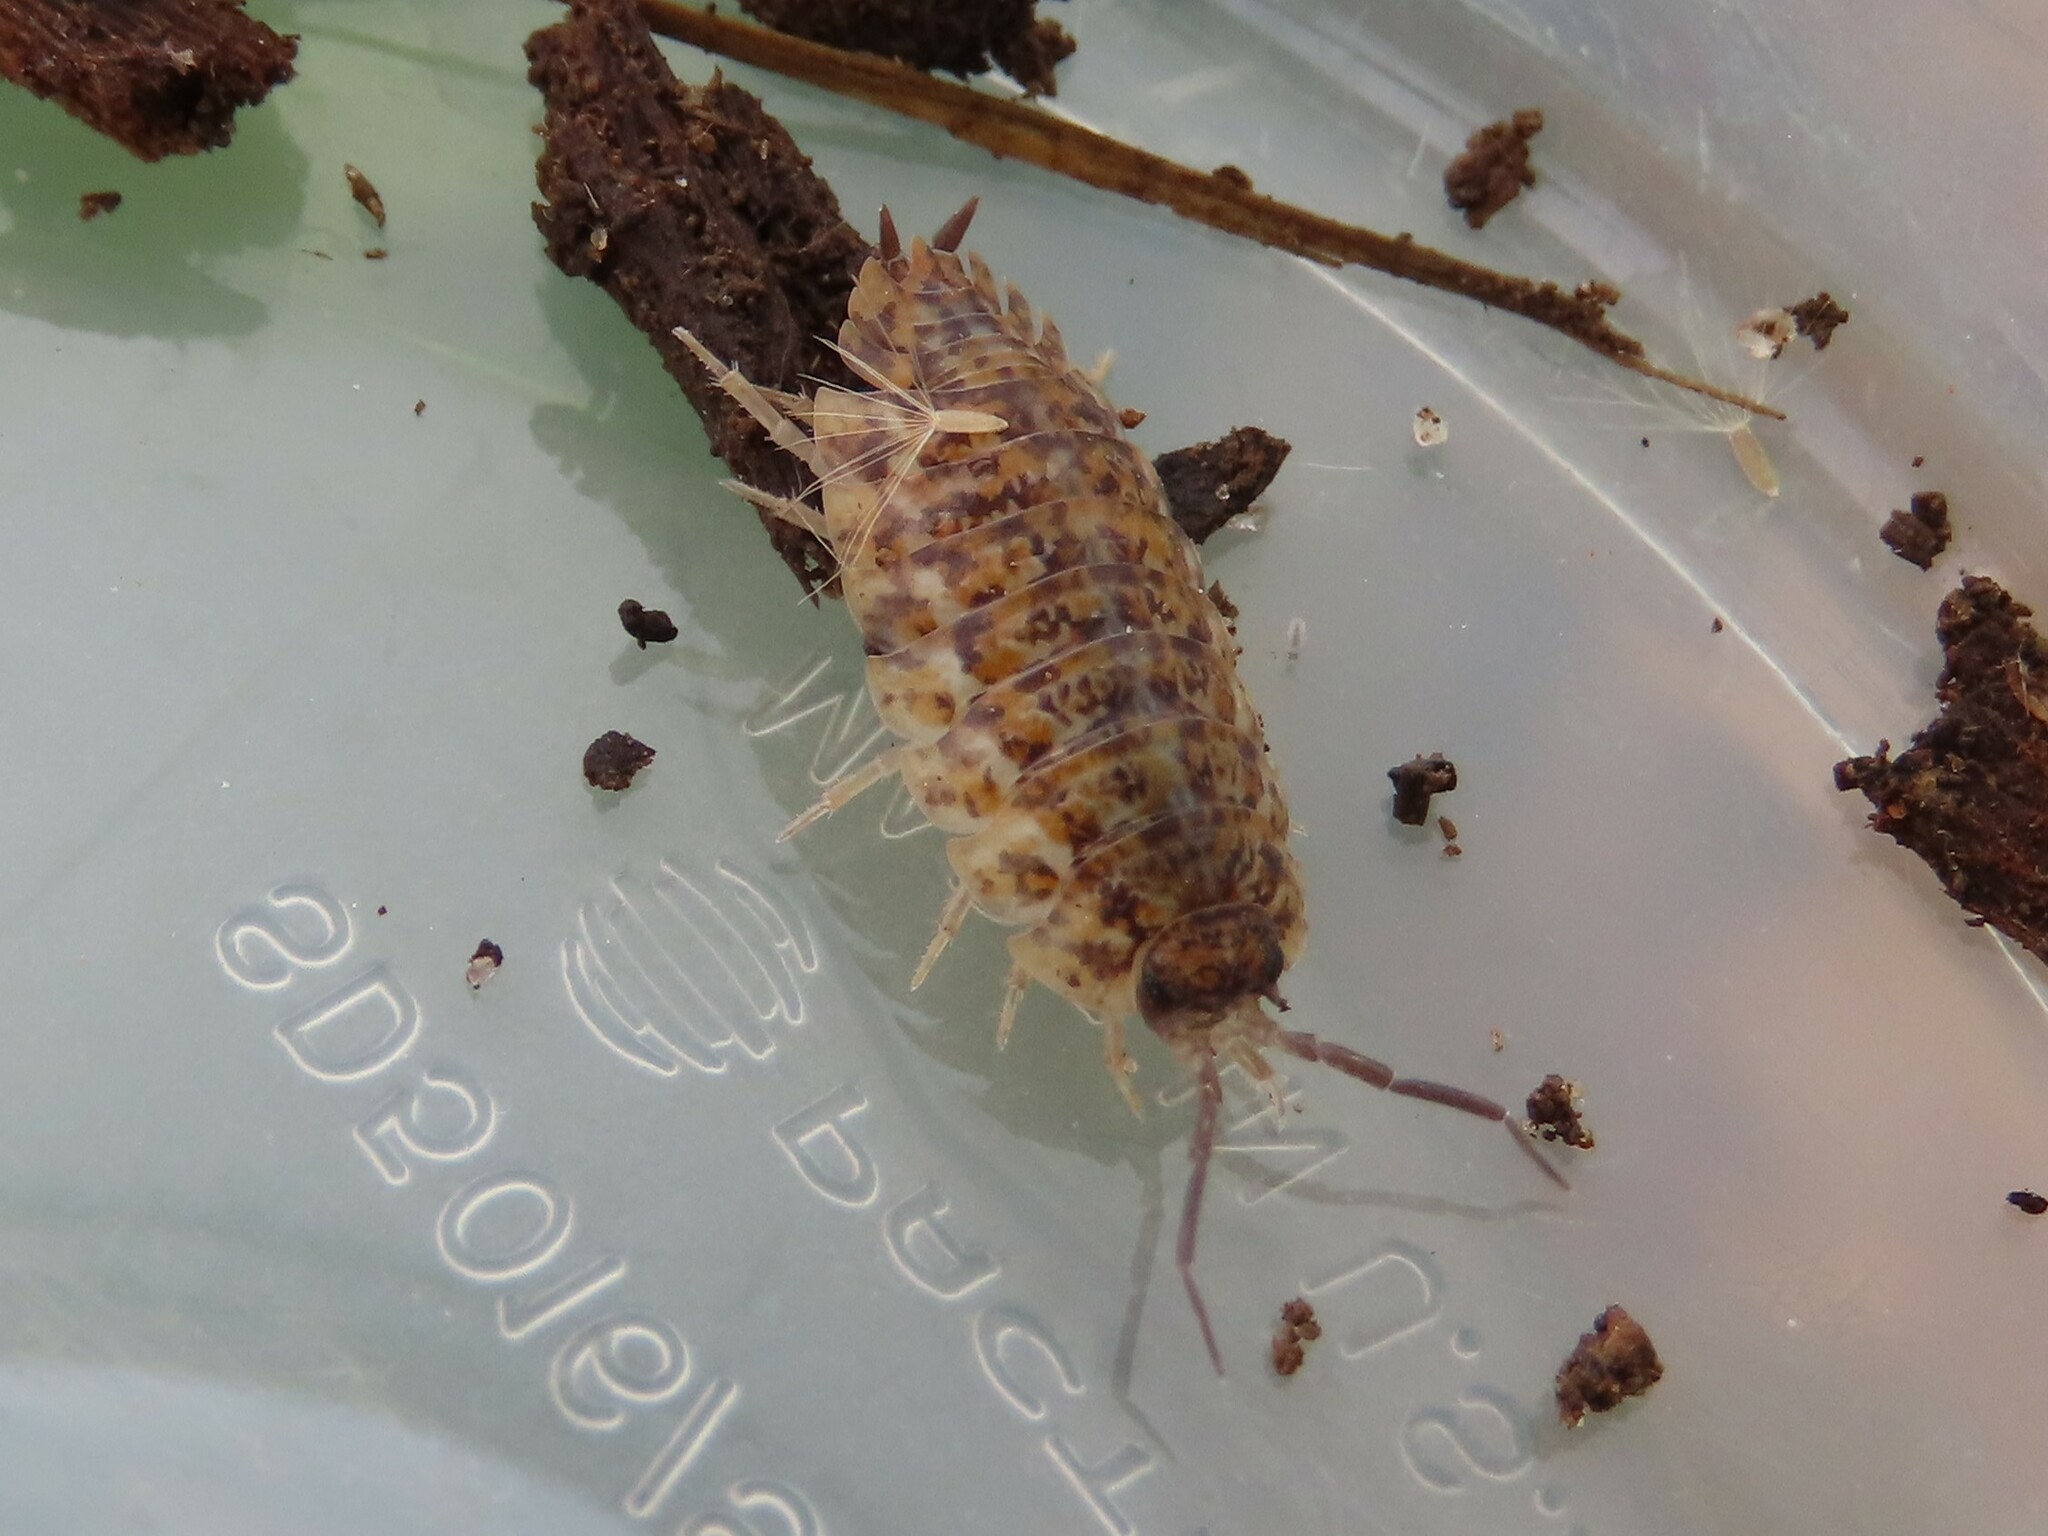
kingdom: Animalia
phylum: Arthropoda
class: Malacostraca
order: Isopoda
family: Trachelipodidae
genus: Trachelipus
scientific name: Trachelipus rathkii
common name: Isopod
